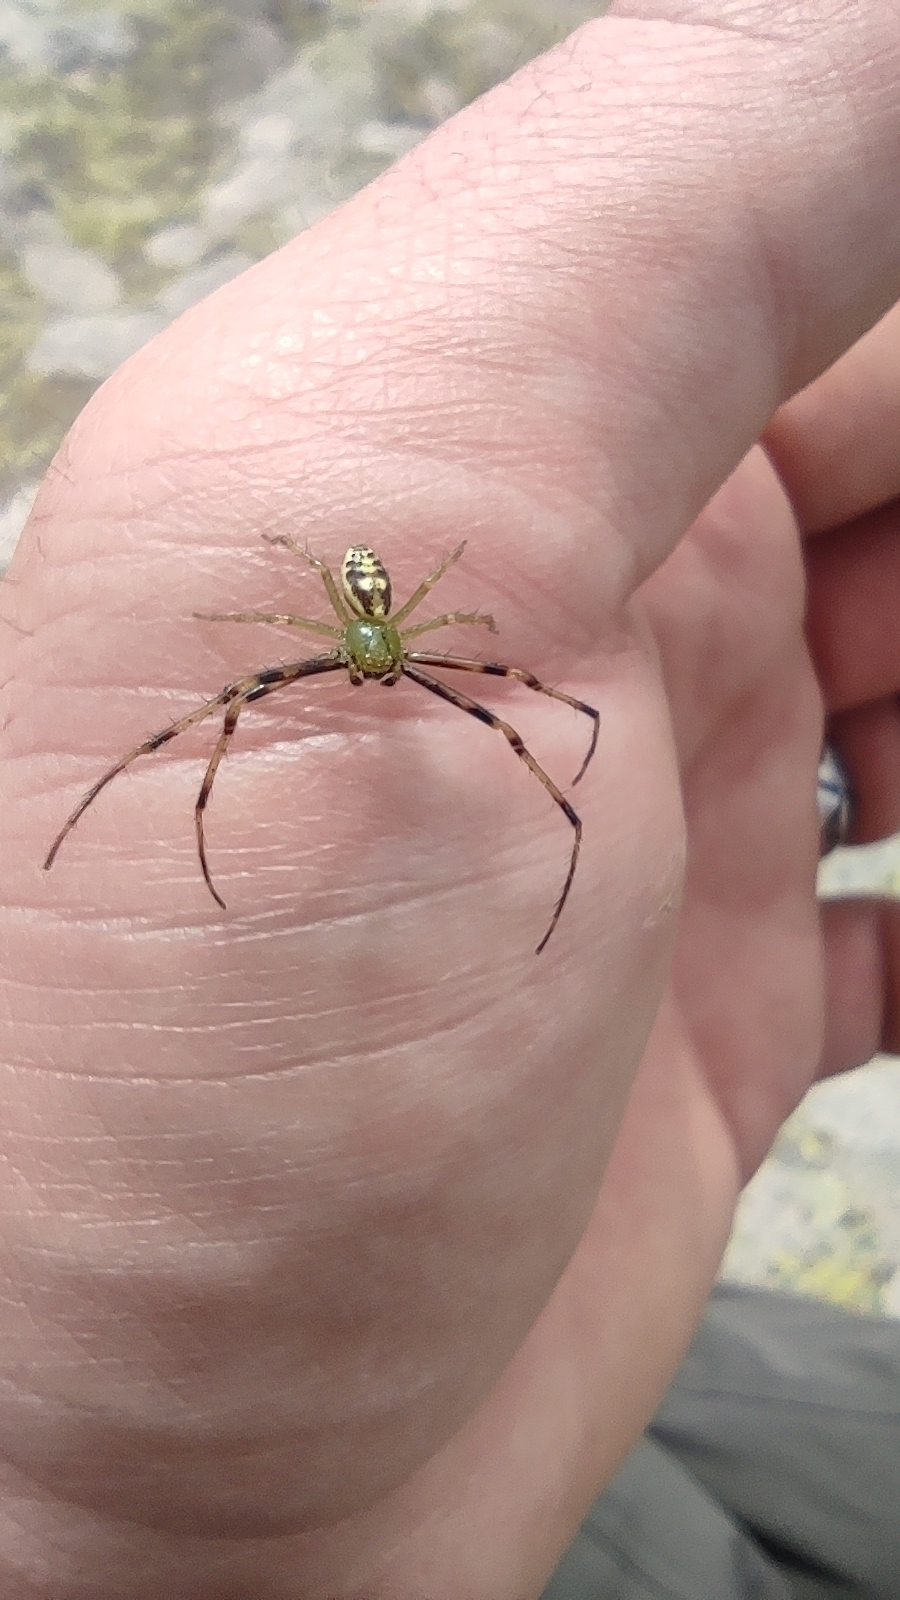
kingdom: Animalia
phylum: Arthropoda
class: Arachnida
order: Araneae
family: Thomisidae
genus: Diaea
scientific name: Diaea livens
